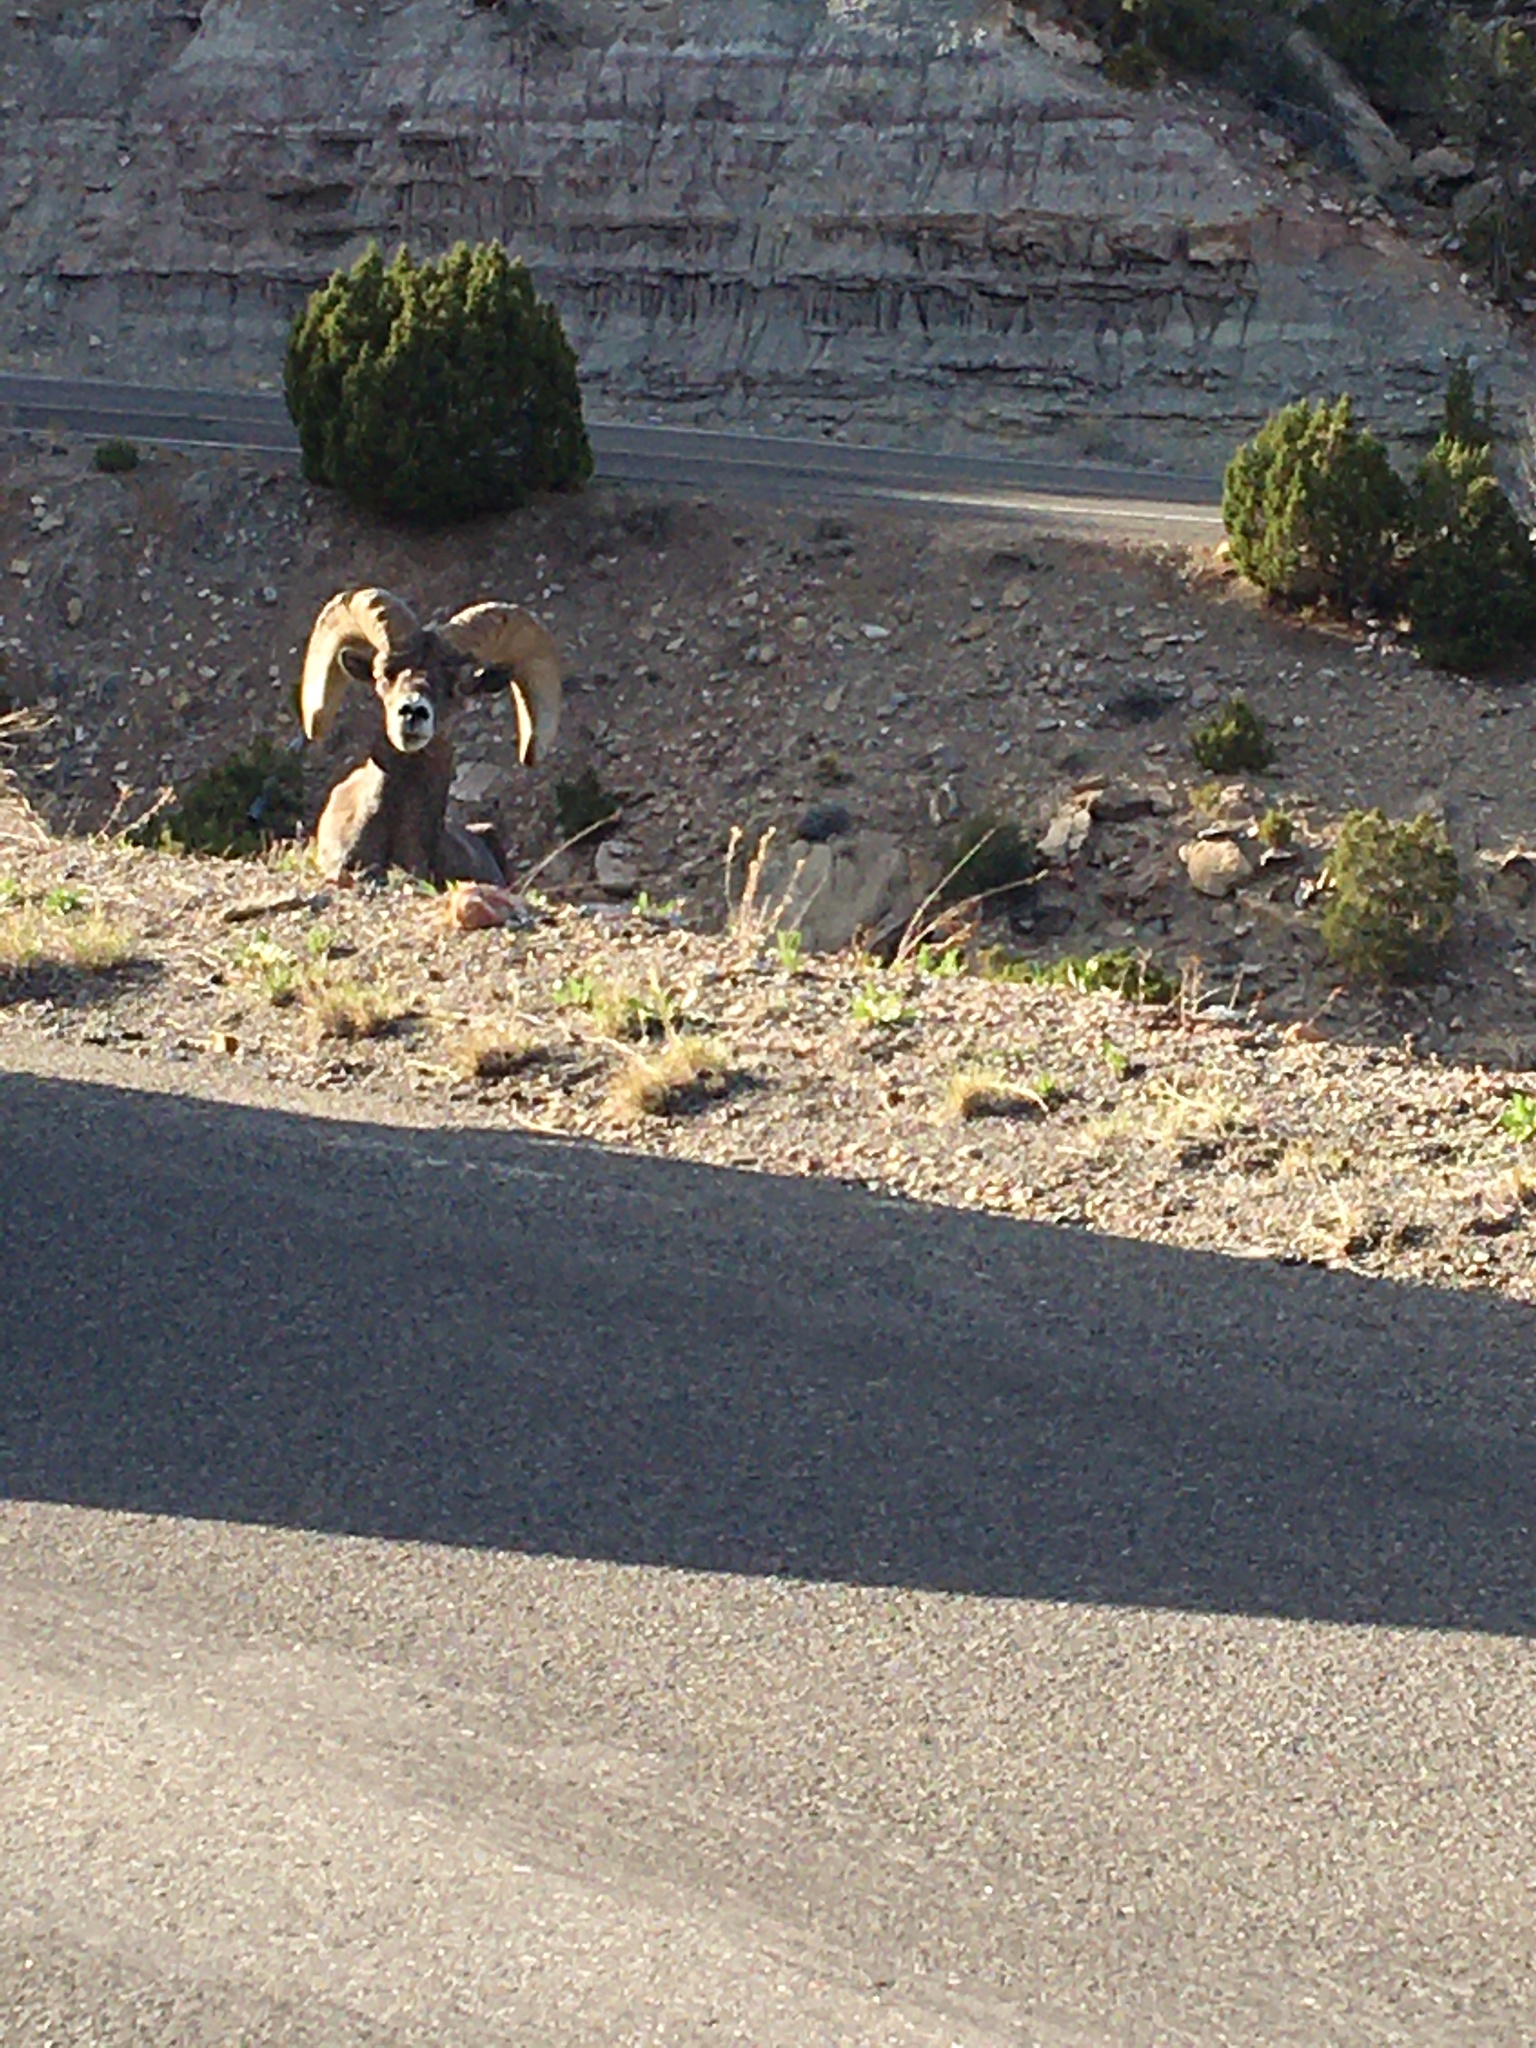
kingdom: Animalia
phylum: Chordata
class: Mammalia
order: Artiodactyla
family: Bovidae
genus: Ovis
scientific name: Ovis canadensis
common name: Bighorn sheep
